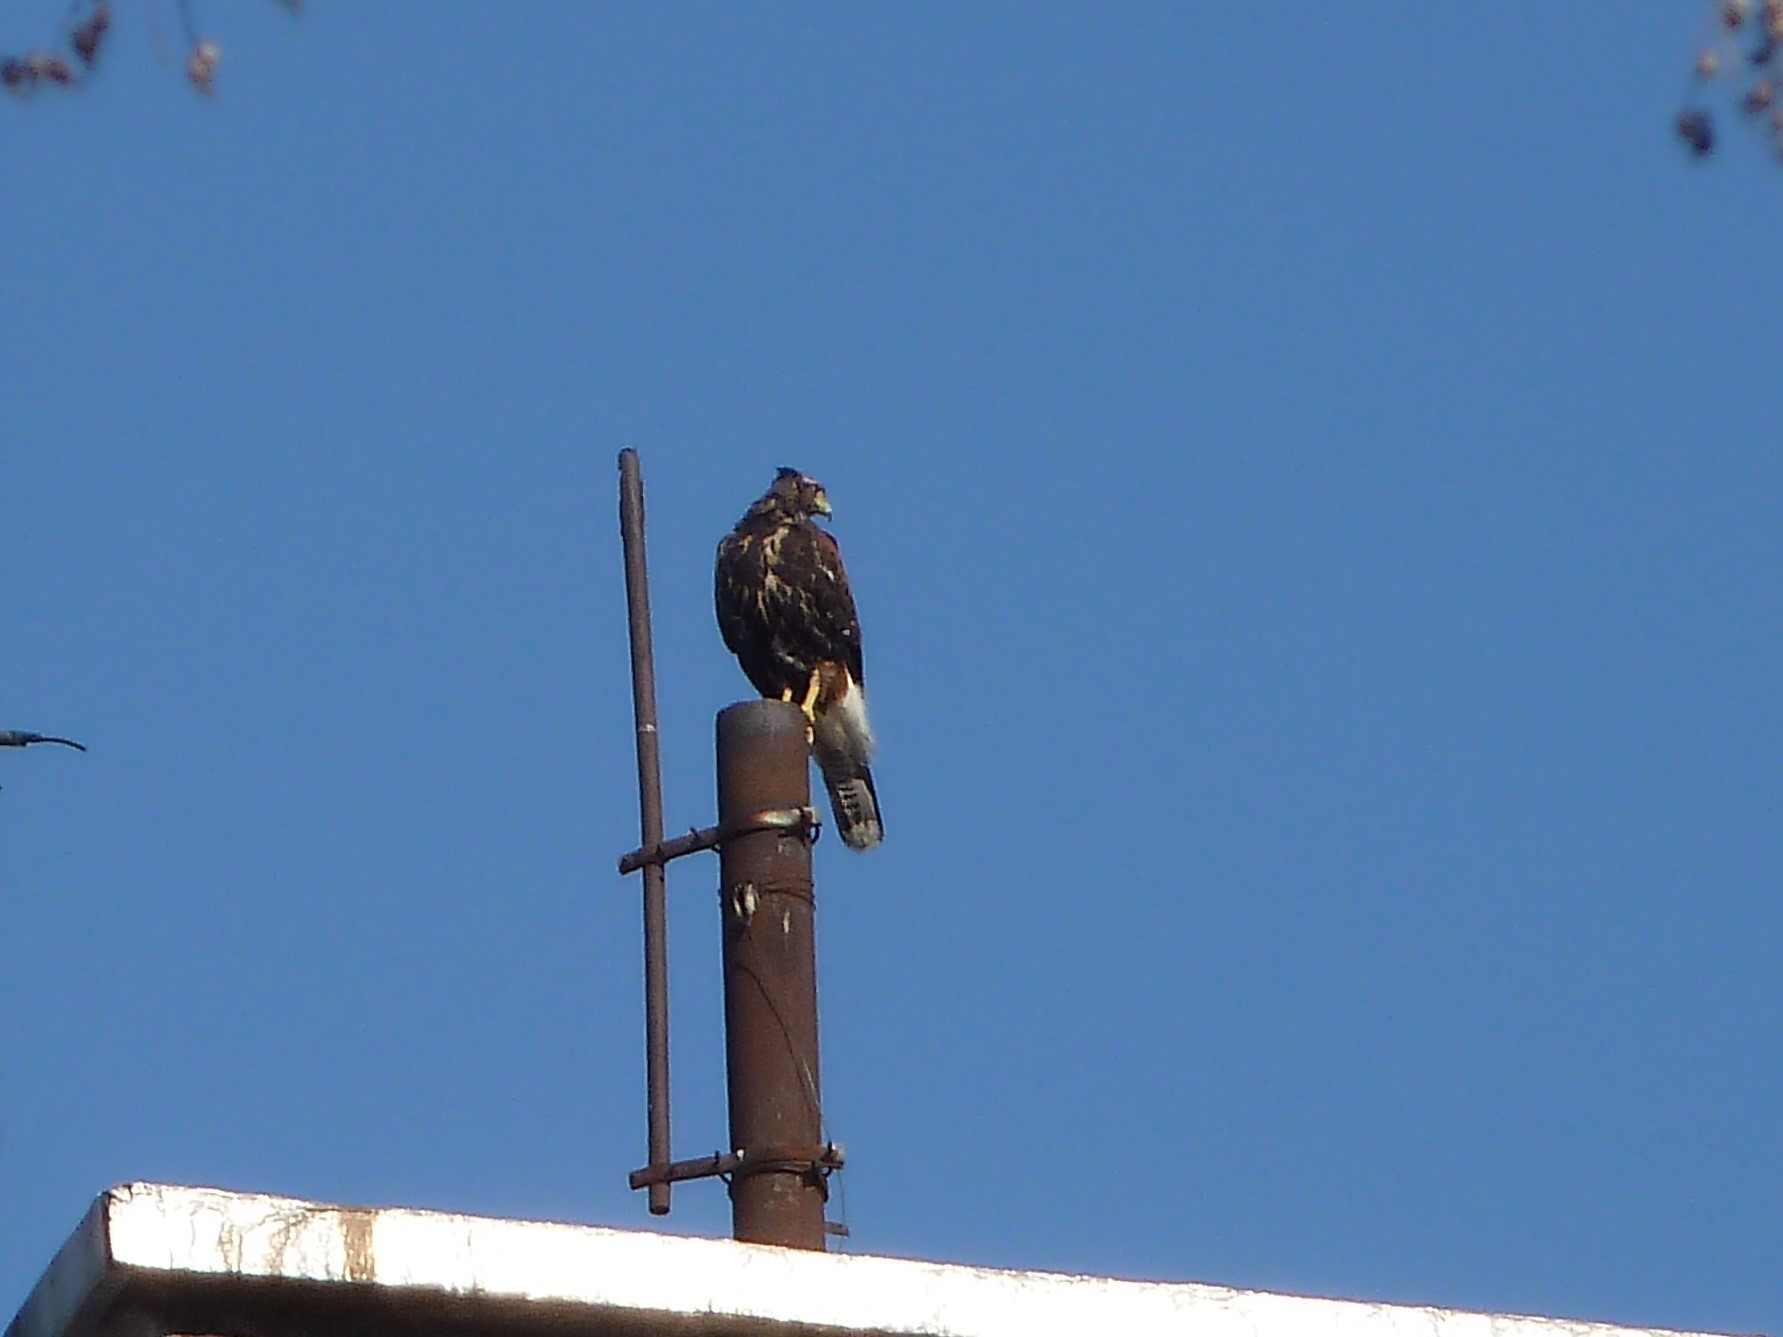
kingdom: Animalia
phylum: Chordata
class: Aves
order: Accipitriformes
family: Accipitridae
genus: Parabuteo
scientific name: Parabuteo unicinctus
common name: Harris's hawk
